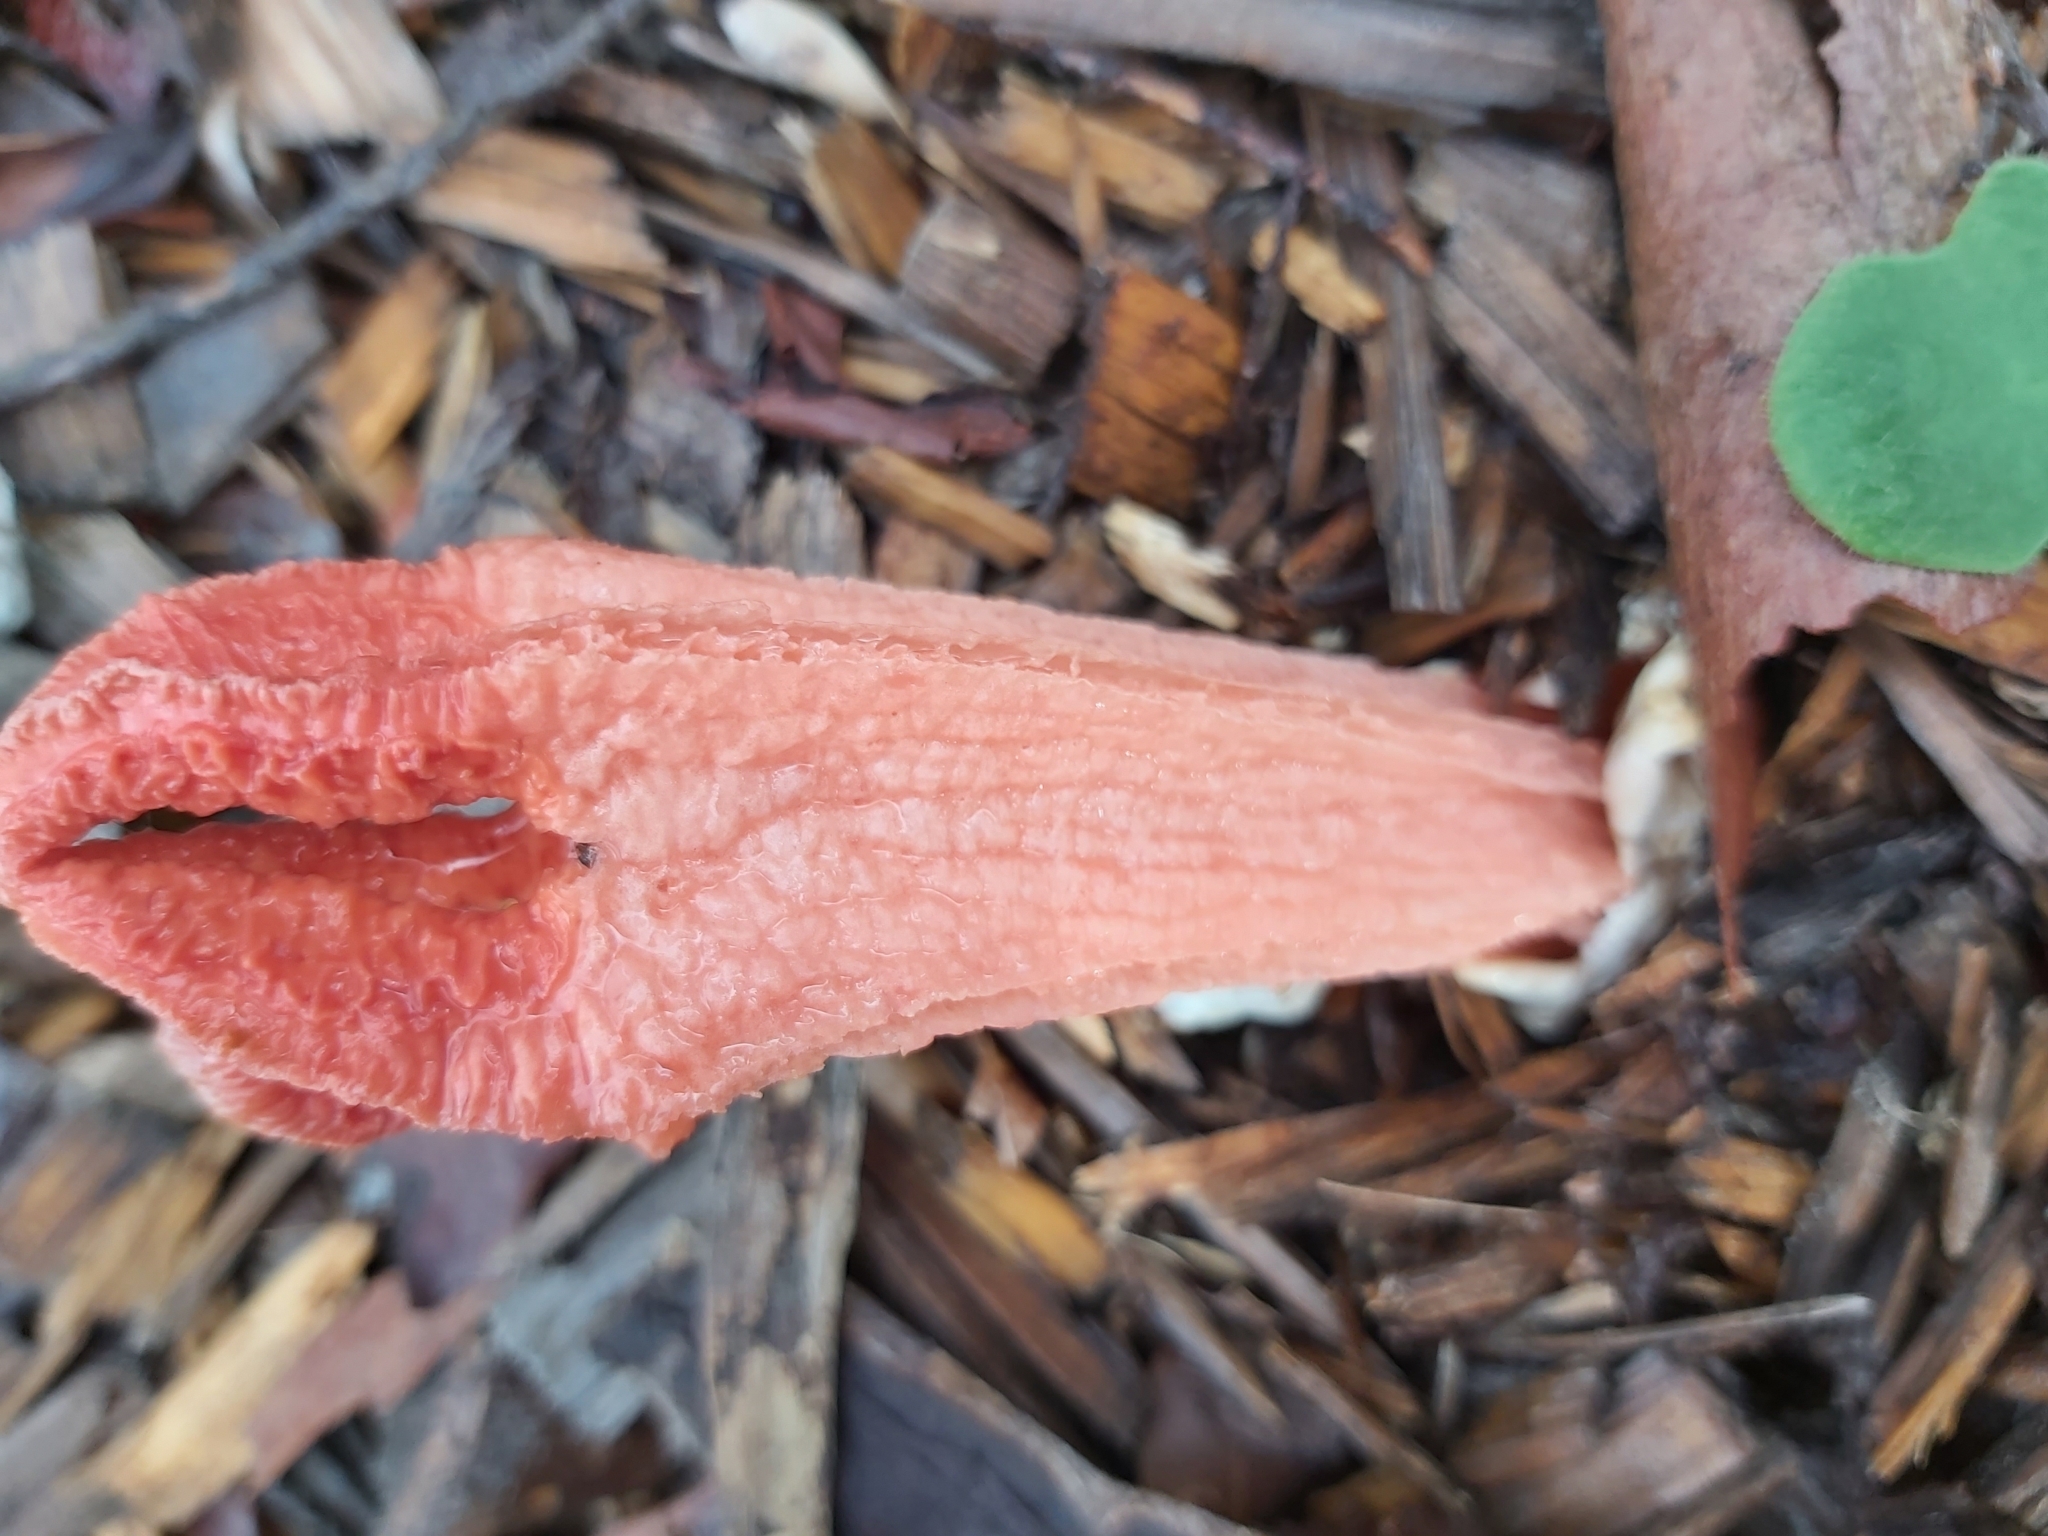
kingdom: Fungi
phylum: Basidiomycota
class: Agaricomycetes
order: Phallales
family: Phallaceae
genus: Lysurus
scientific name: Lysurus mokusin
